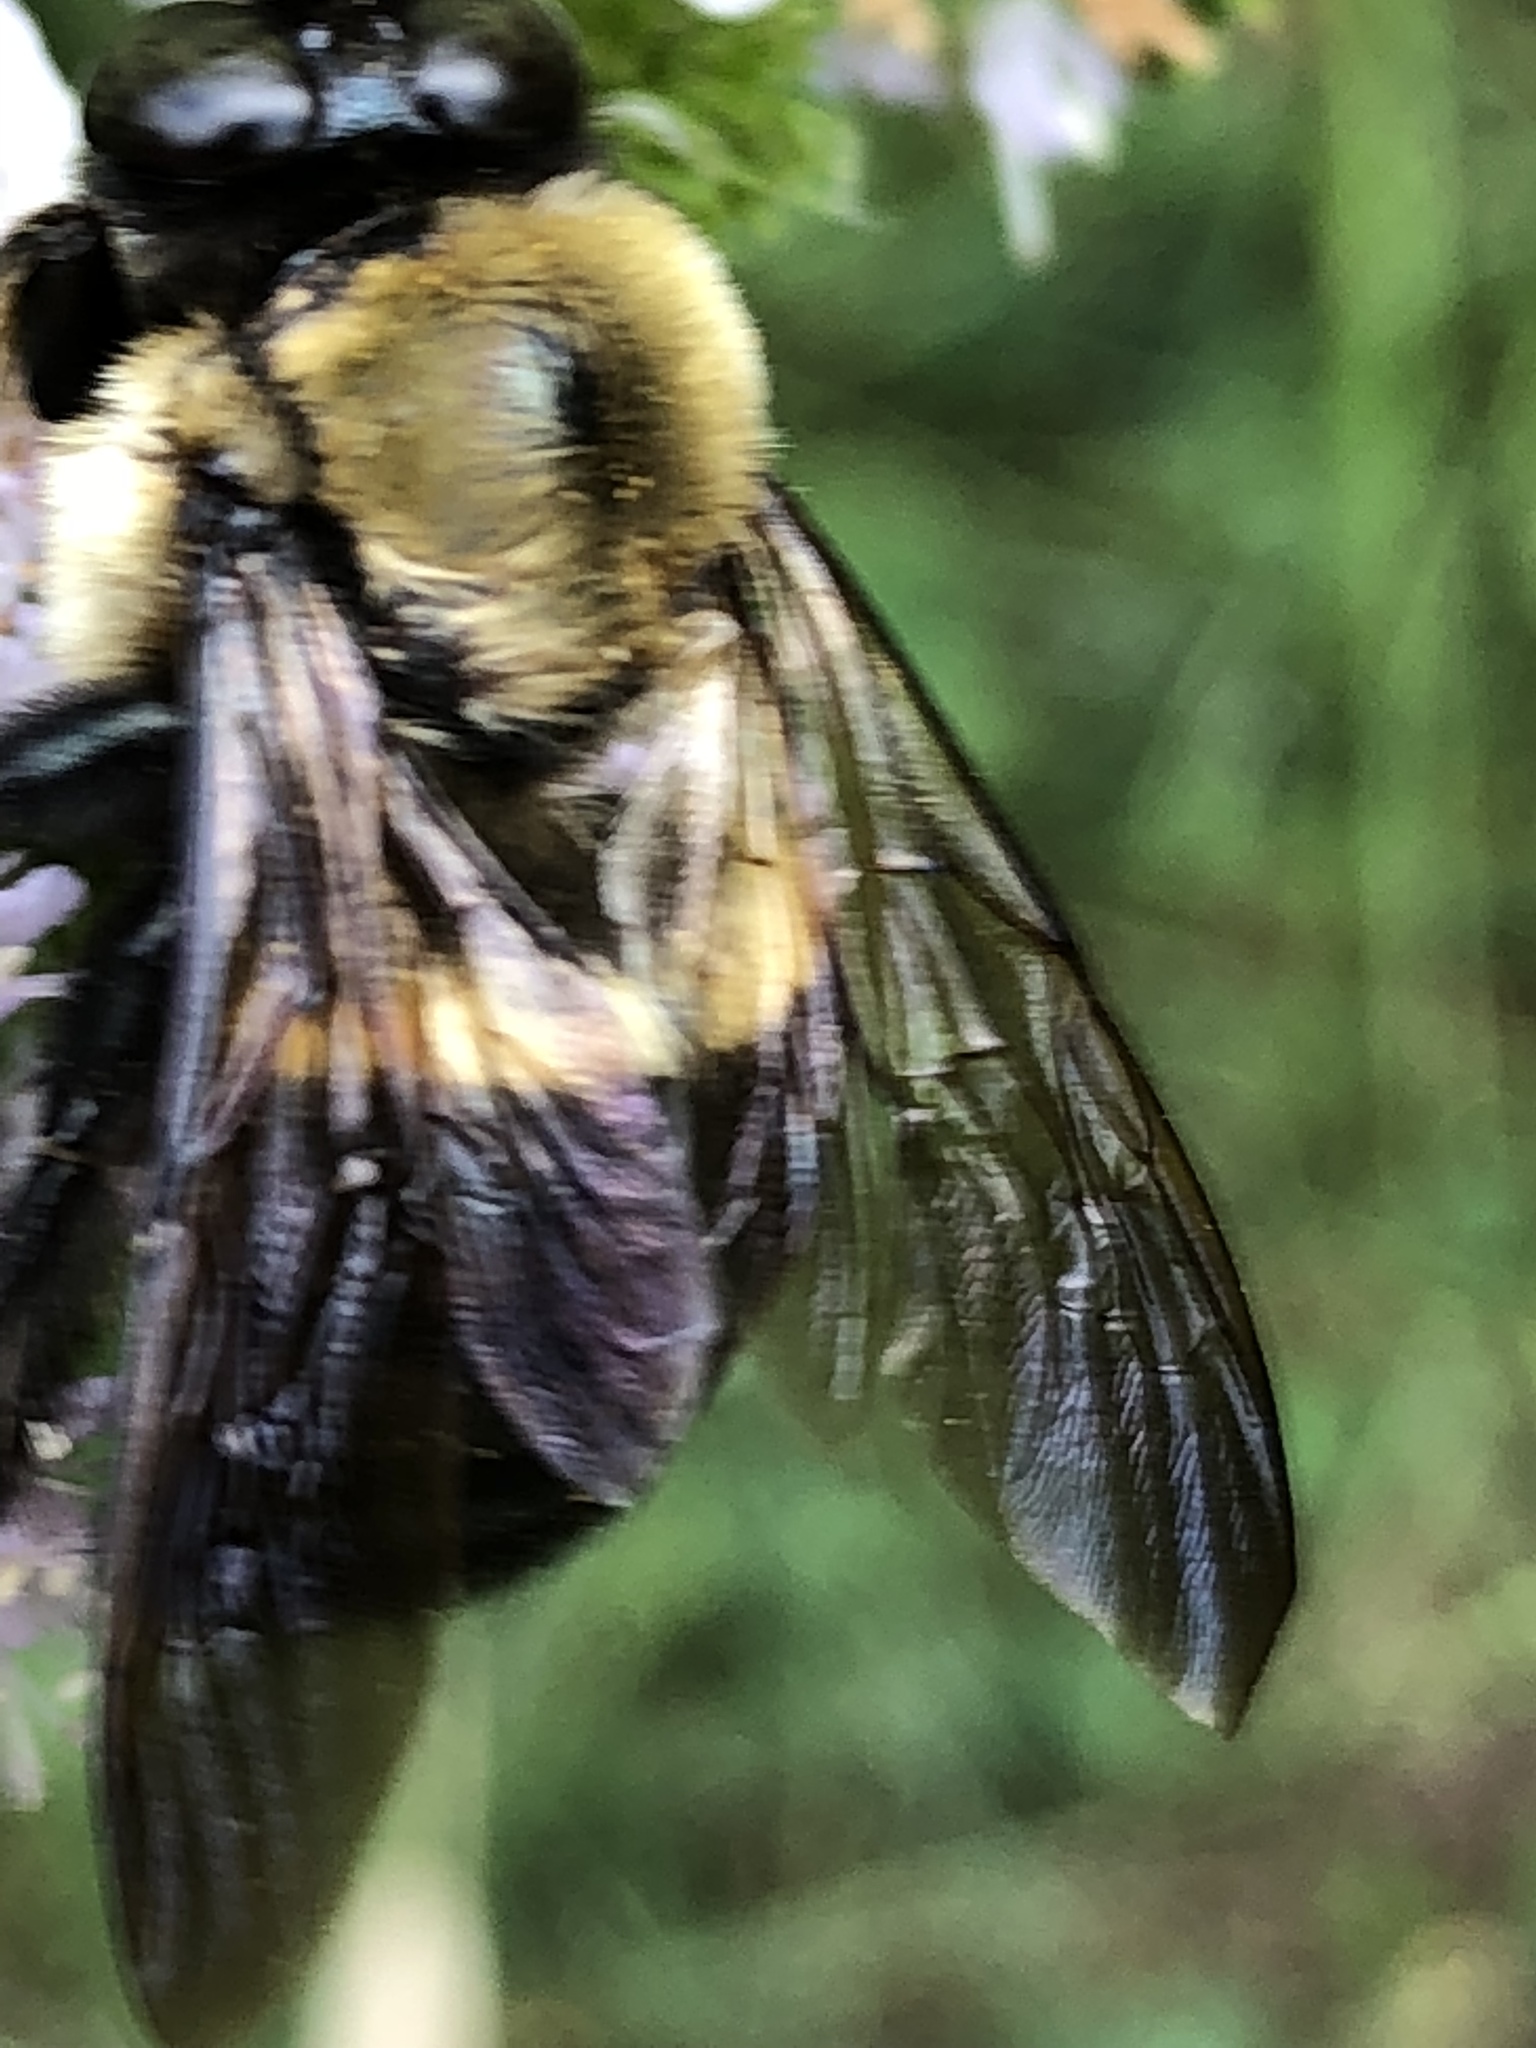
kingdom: Animalia
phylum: Arthropoda
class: Insecta
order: Hymenoptera
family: Apidae
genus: Xylocopa
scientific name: Xylocopa virginica
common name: Carpenter bee
